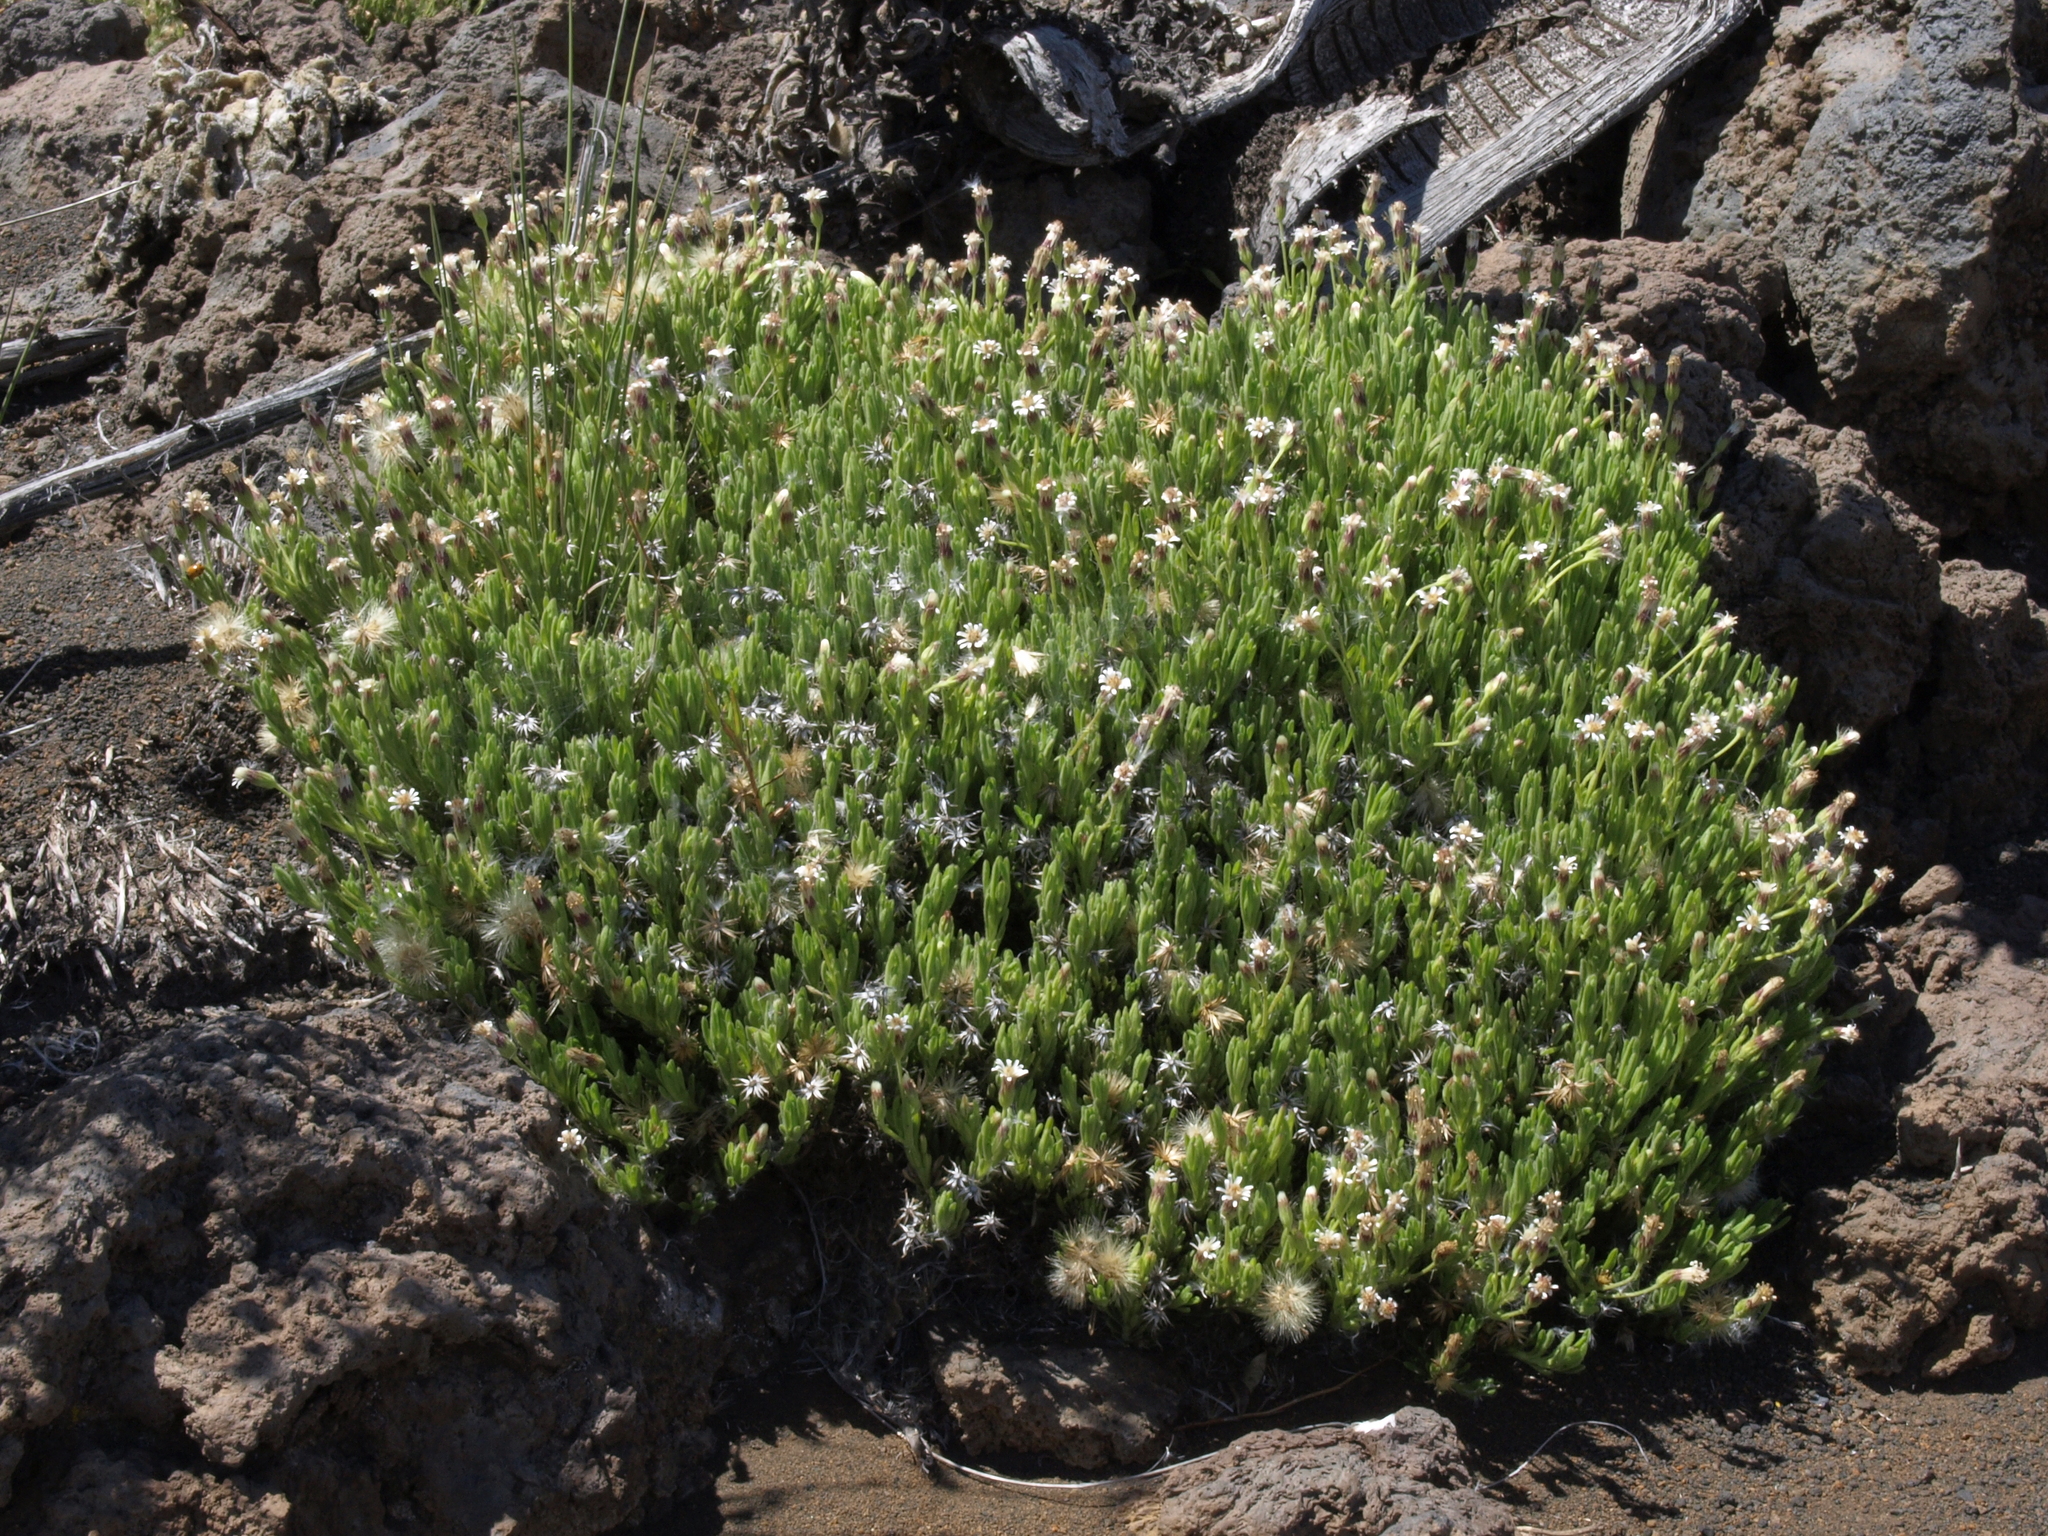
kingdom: Plantae
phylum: Tracheophyta
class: Magnoliopsida
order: Asterales
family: Asteraceae
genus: Tetramolopium
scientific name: Tetramolopium humile
